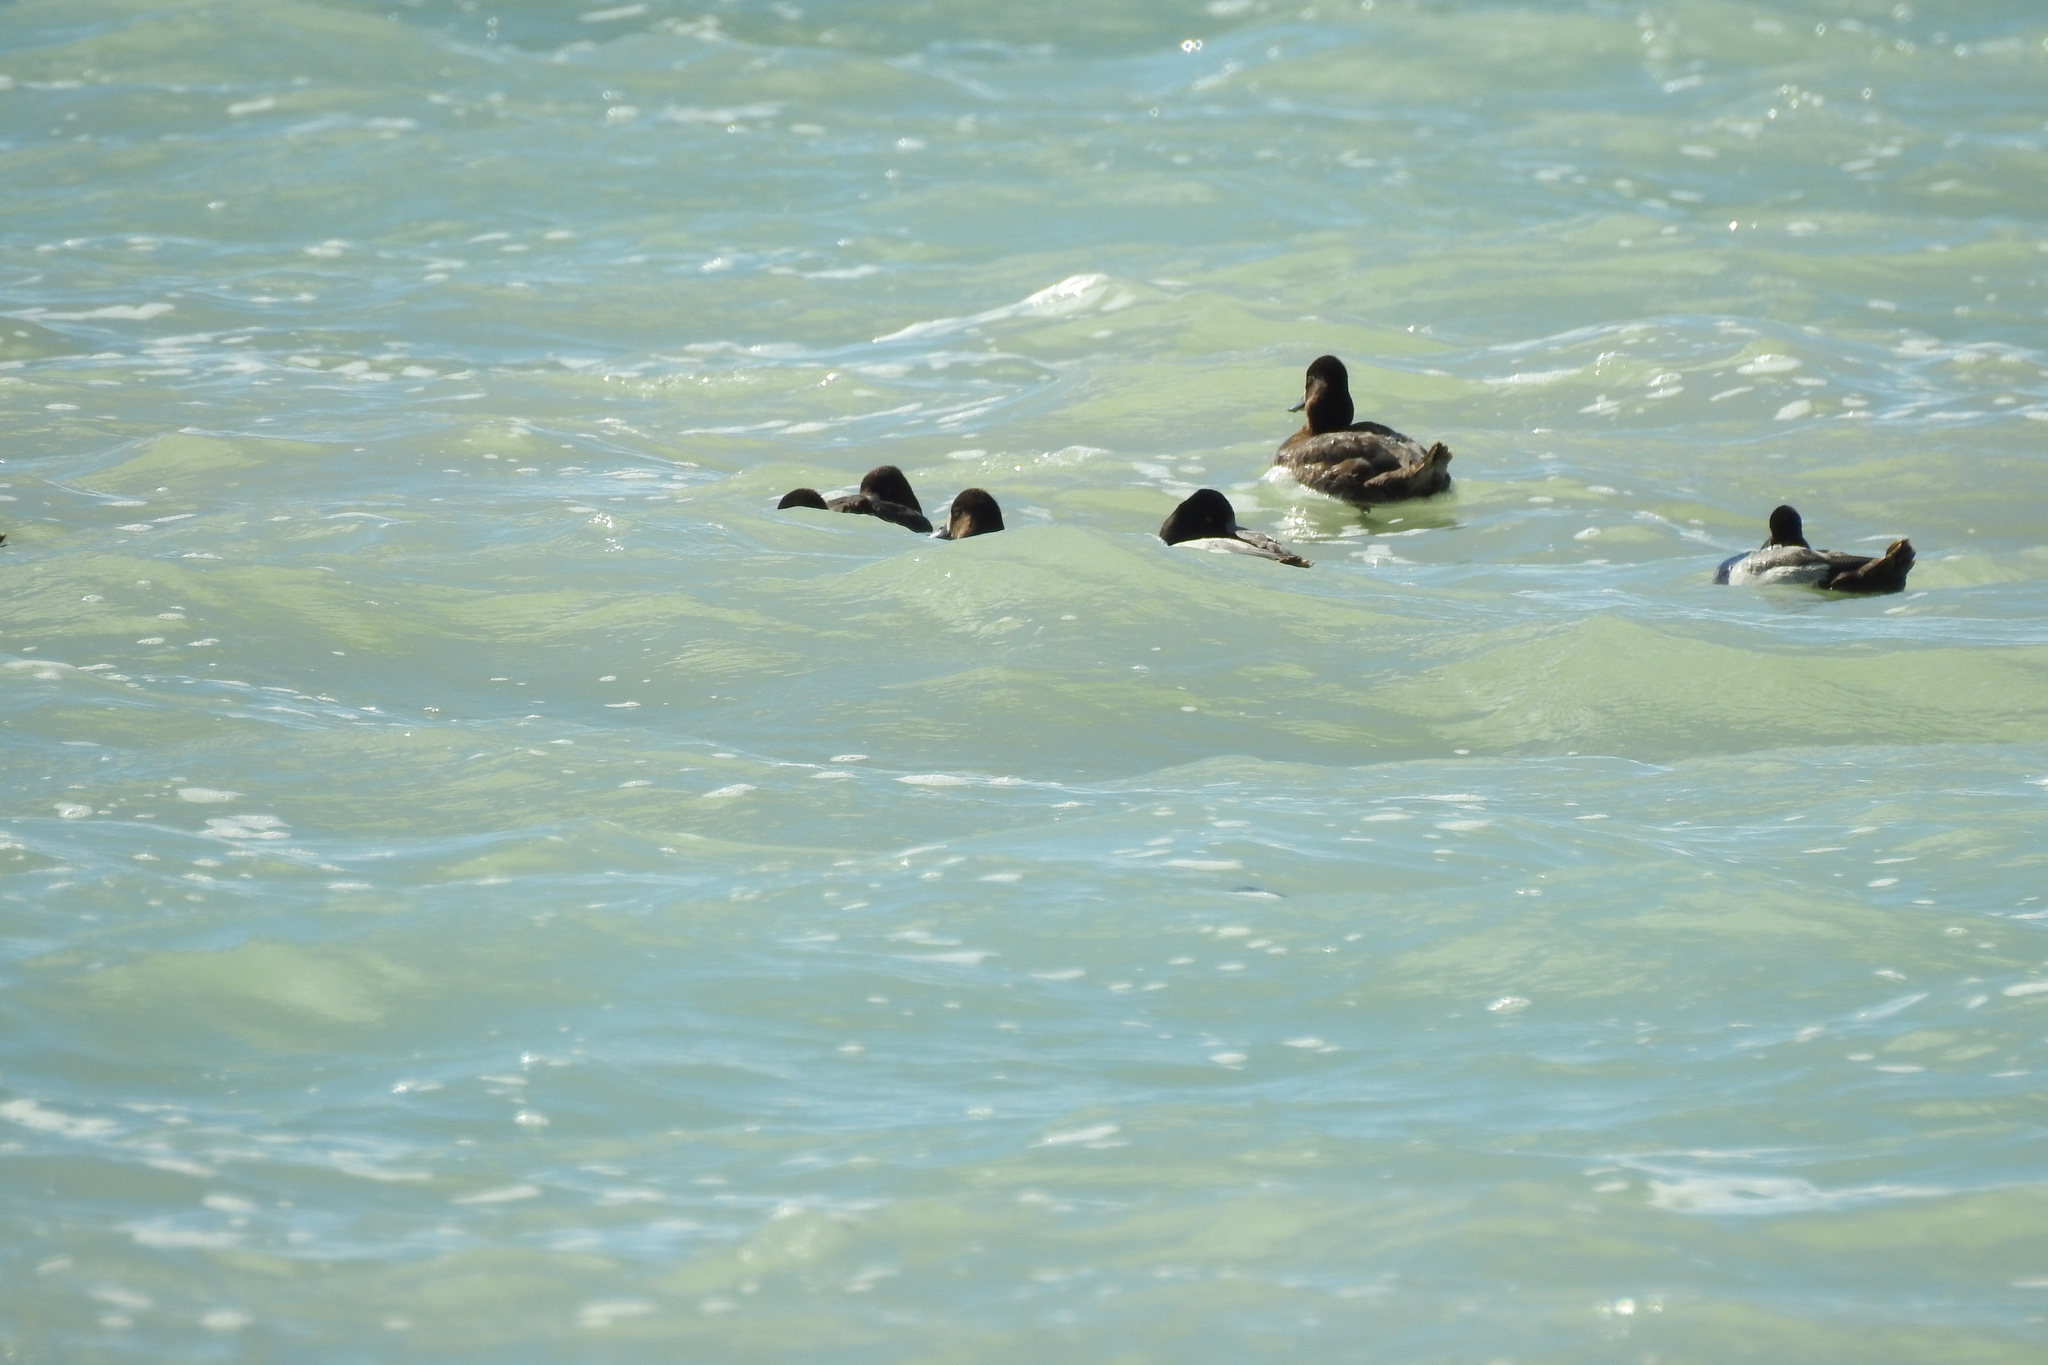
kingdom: Animalia
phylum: Chordata
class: Aves
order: Anseriformes
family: Anatidae
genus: Aythya
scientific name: Aythya affinis
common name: Lesser scaup
